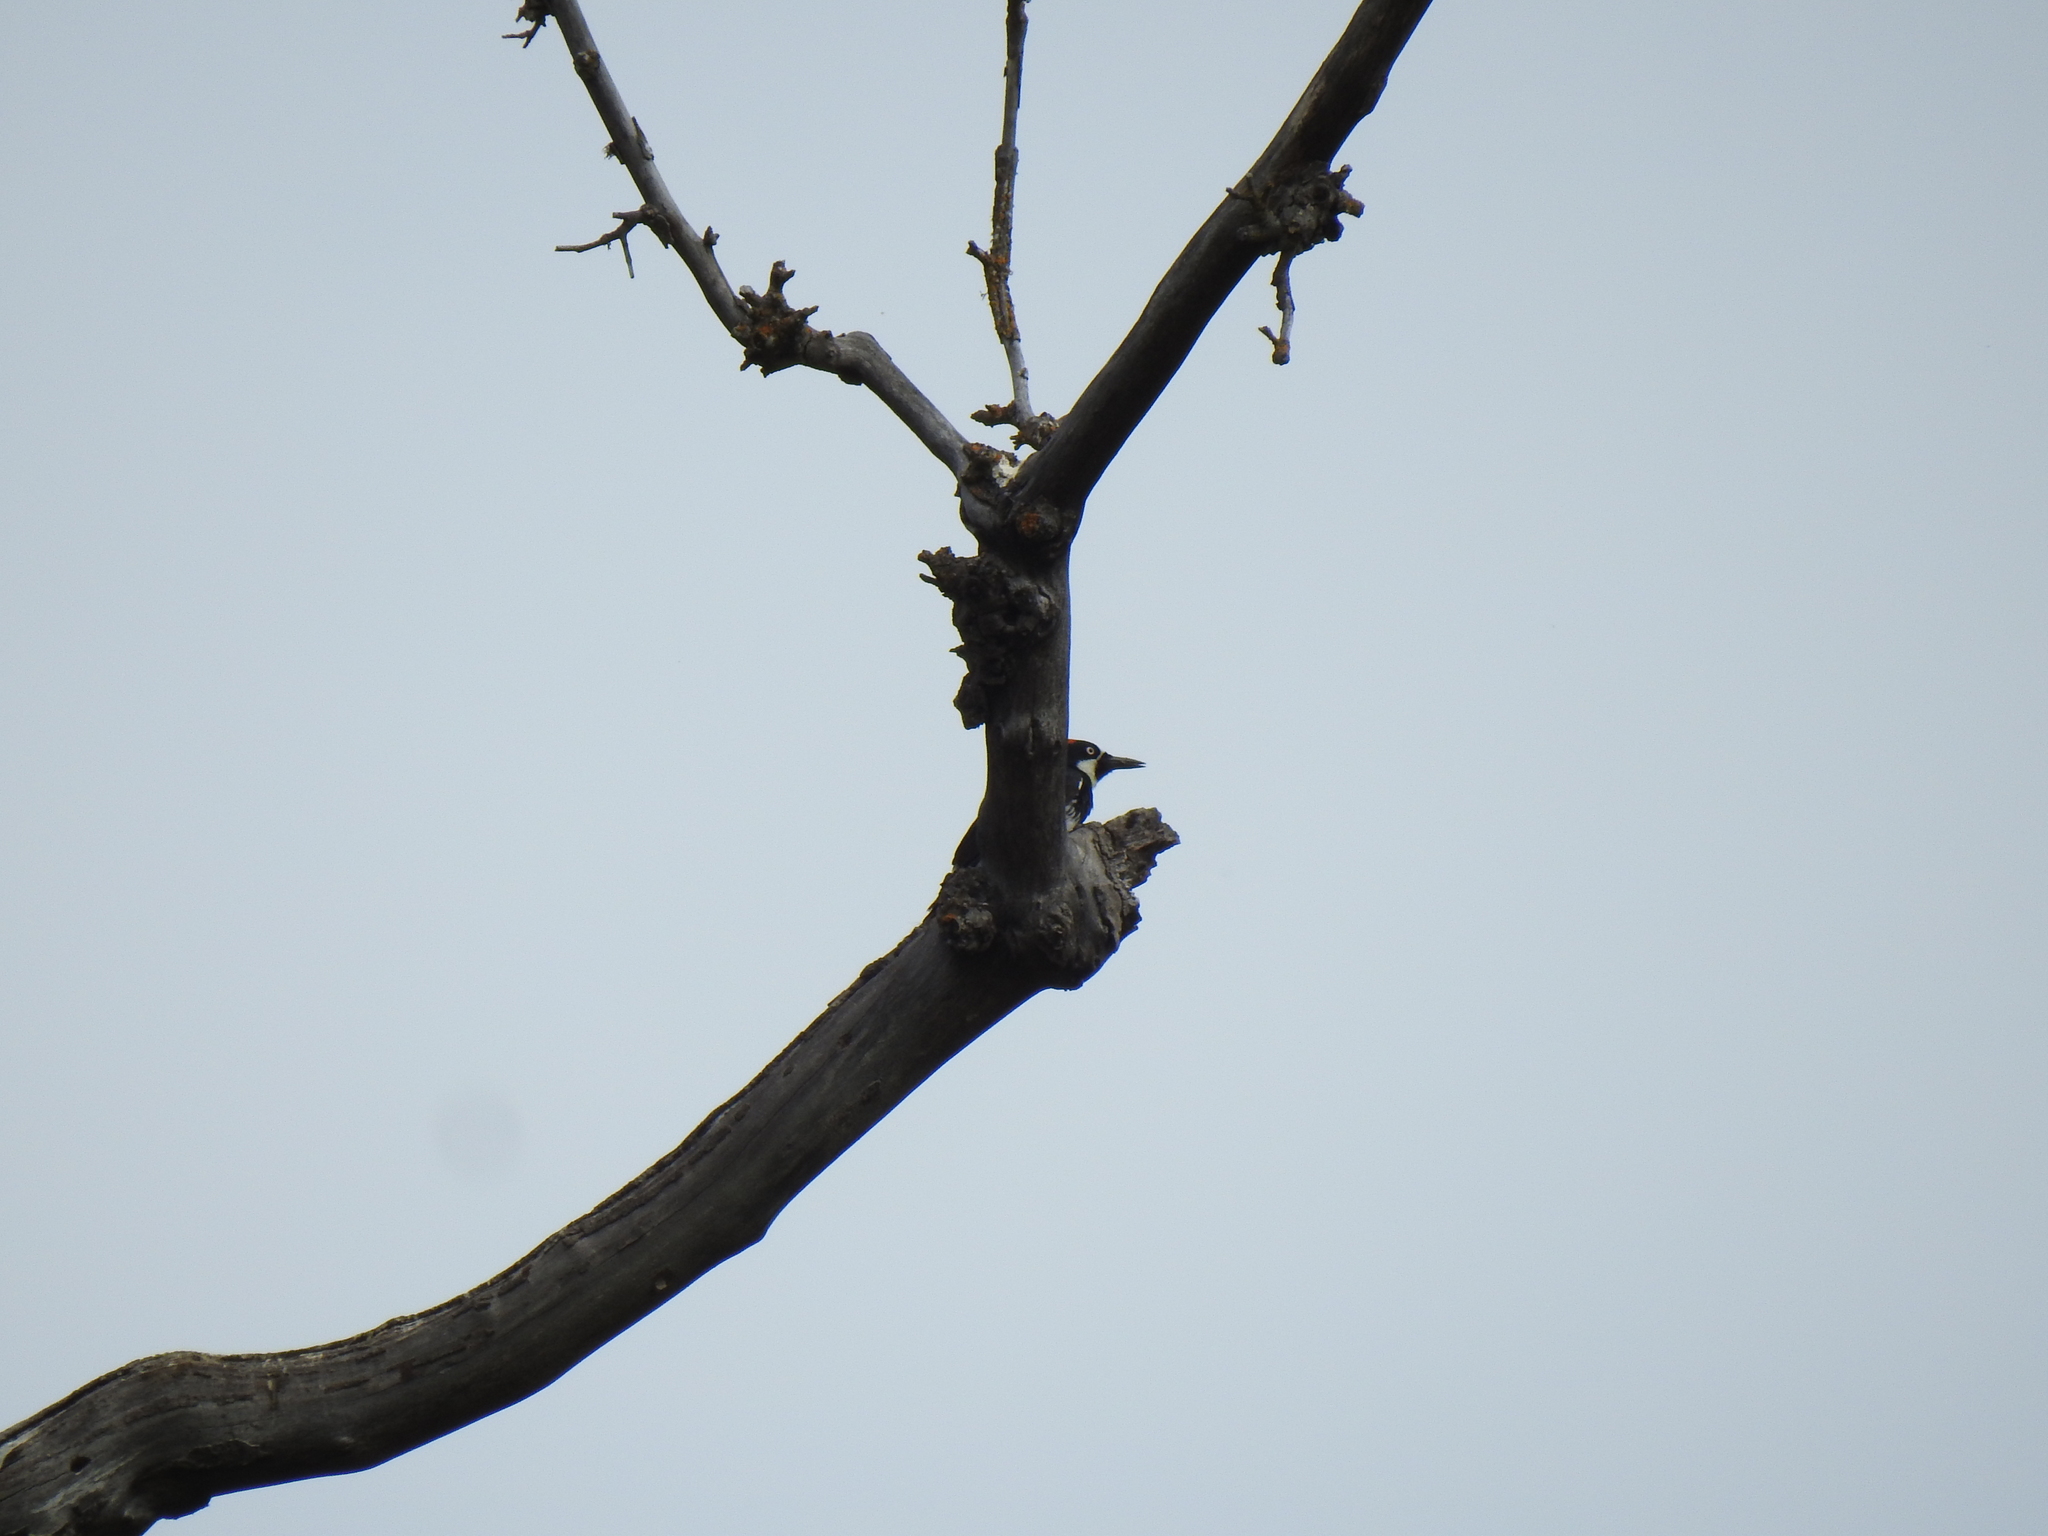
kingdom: Animalia
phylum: Chordata
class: Aves
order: Piciformes
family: Picidae
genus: Melanerpes
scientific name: Melanerpes formicivorus
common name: Acorn woodpecker
